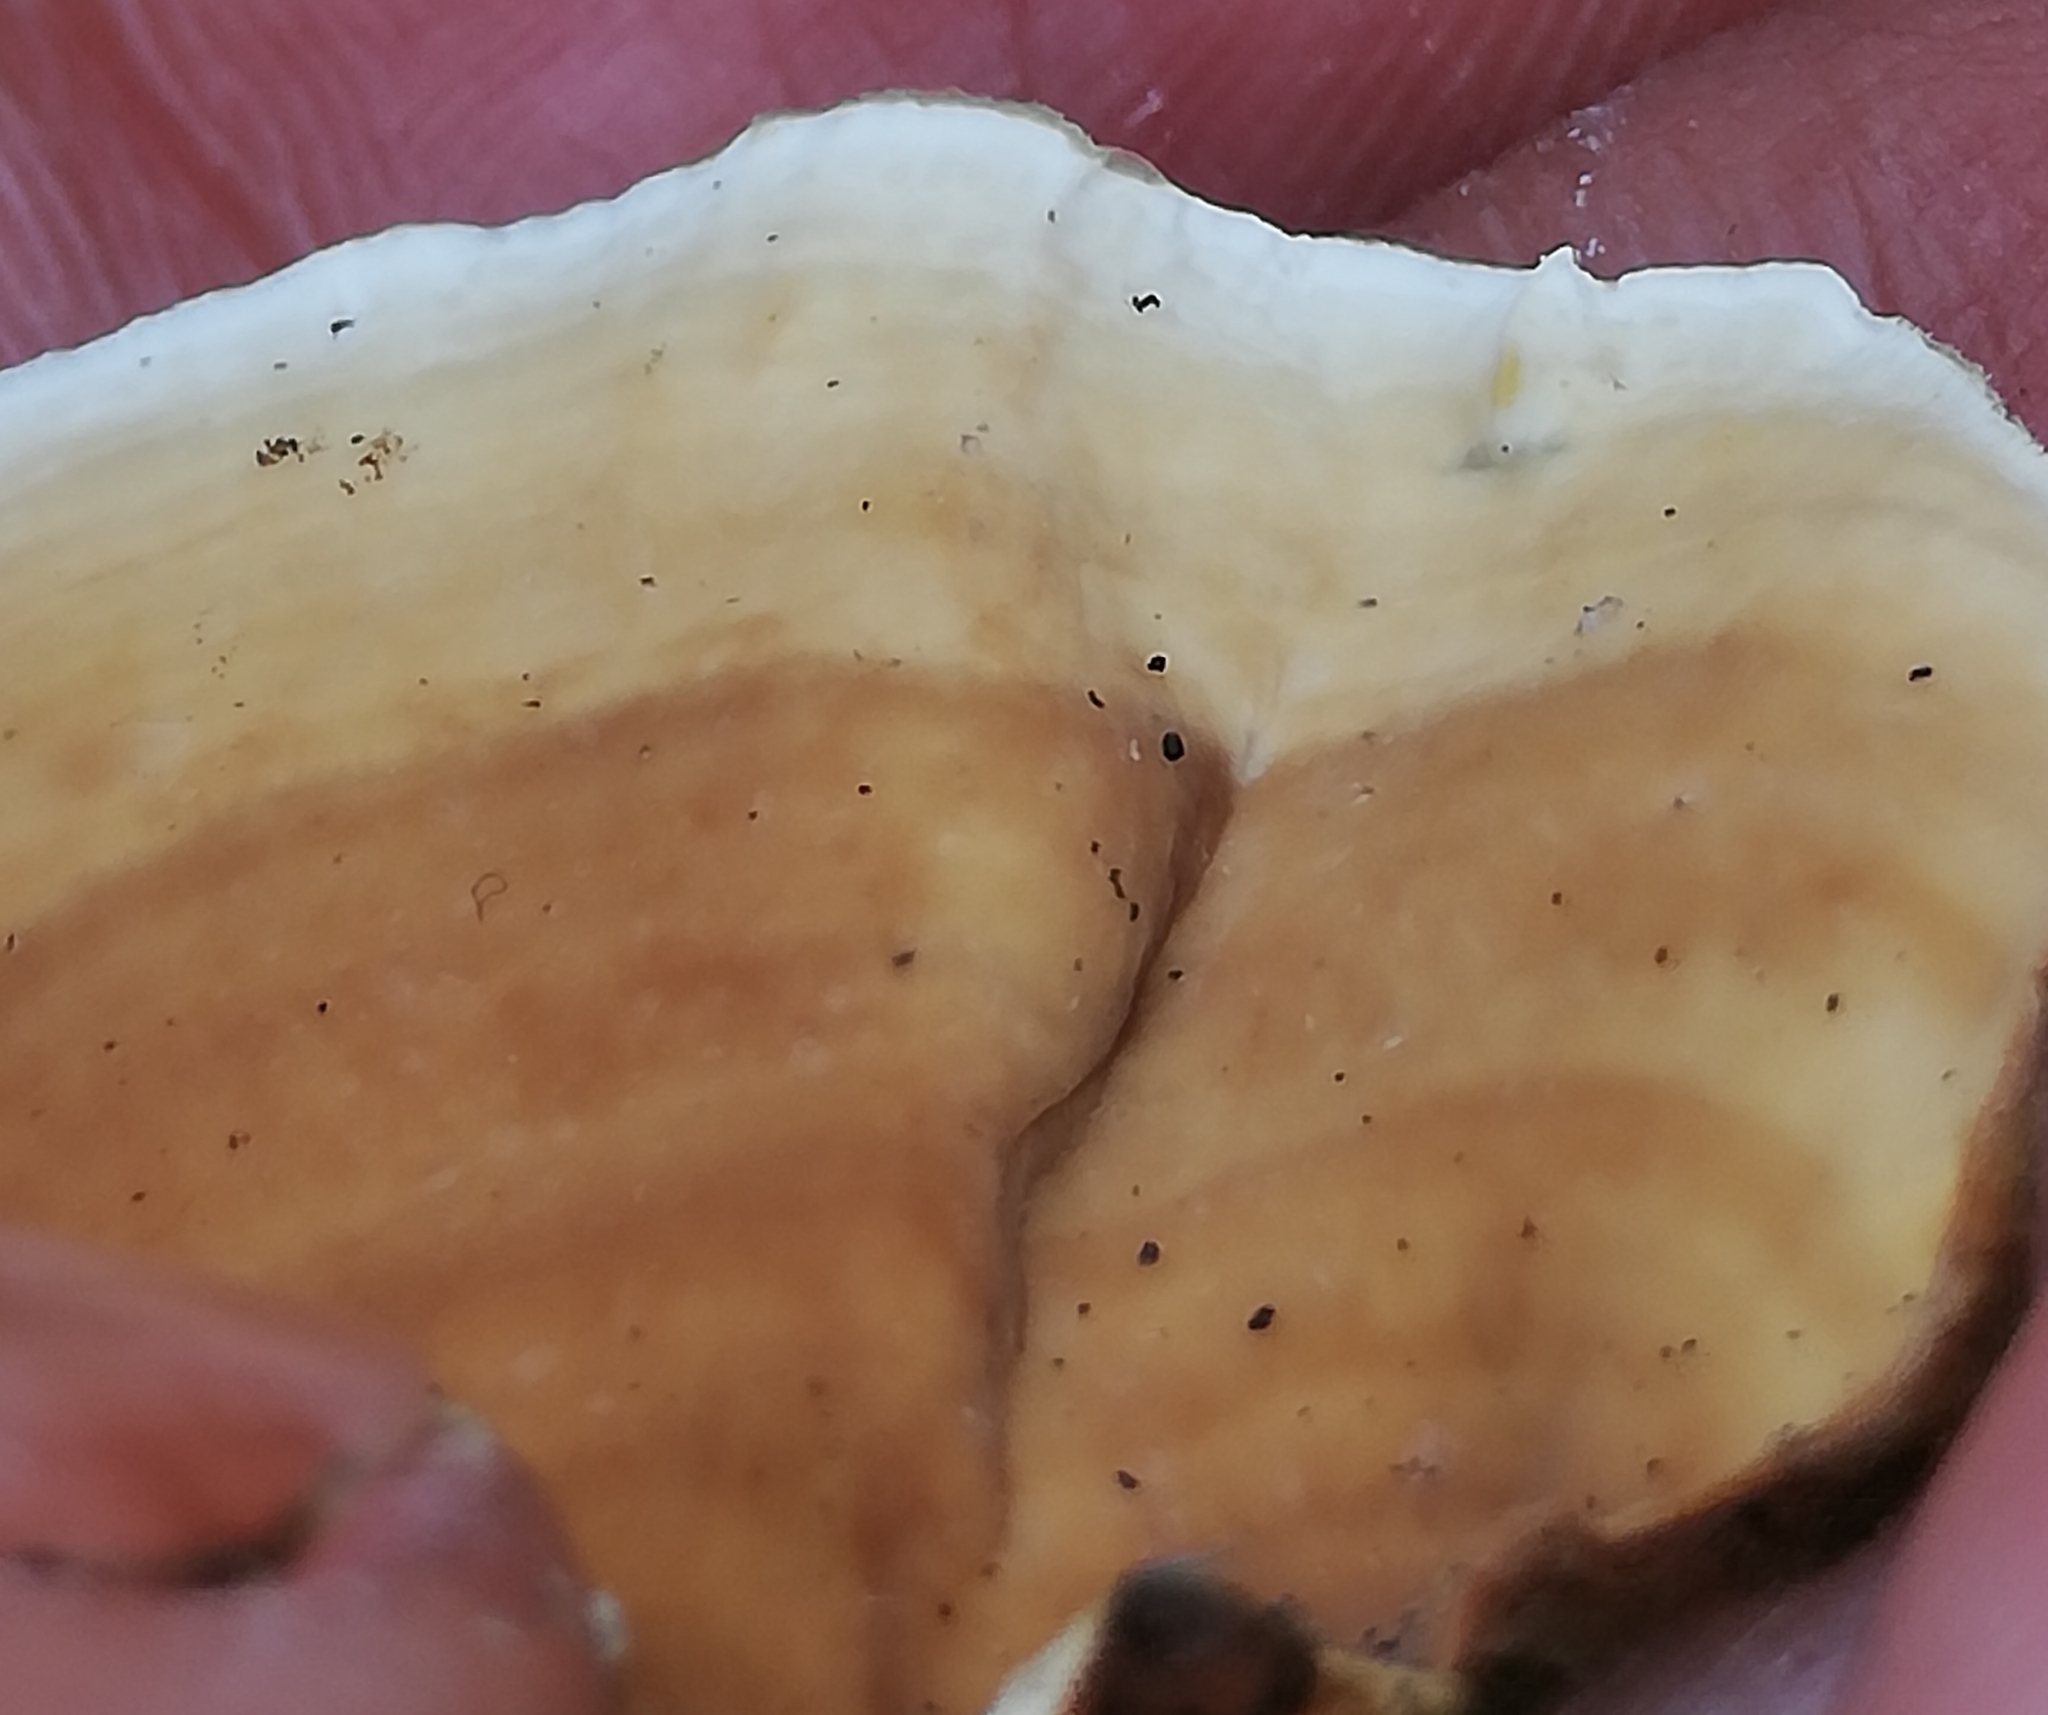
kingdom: Fungi
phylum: Basidiomycota
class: Agaricomycetes
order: Russulales
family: Stereaceae
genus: Stereum
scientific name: Stereum subtomentosum
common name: Yellowing curtain crust
